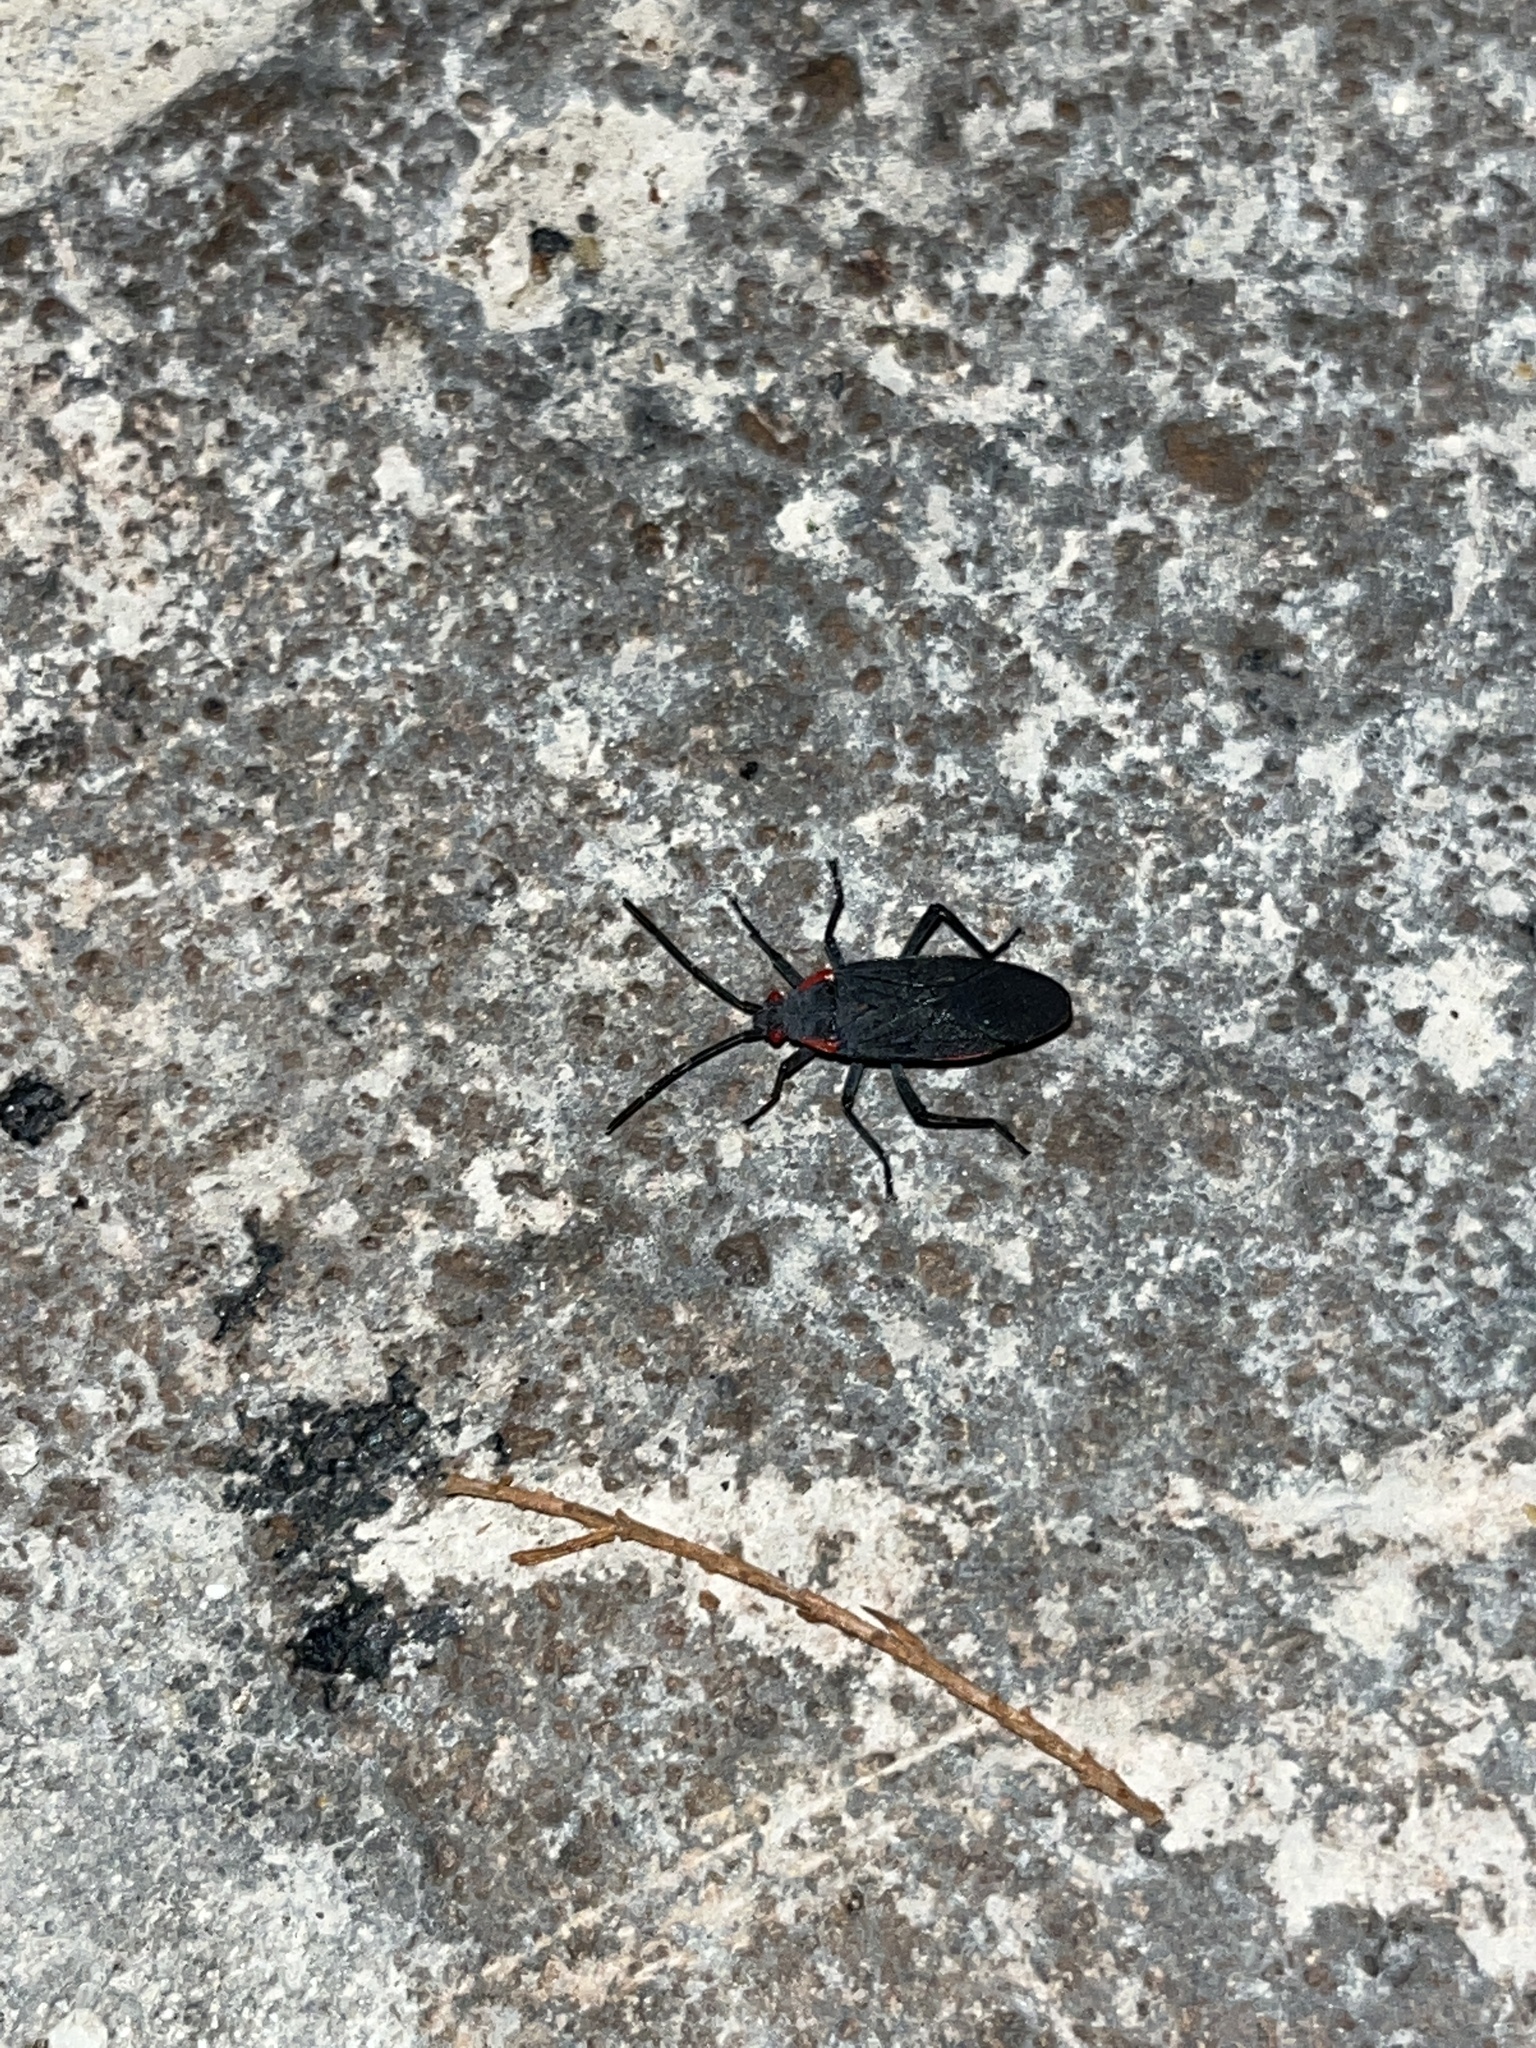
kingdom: Animalia
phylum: Arthropoda
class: Insecta
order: Hemiptera
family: Rhopalidae
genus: Jadera
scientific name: Jadera haematoloma
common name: Red-shouldered bug
